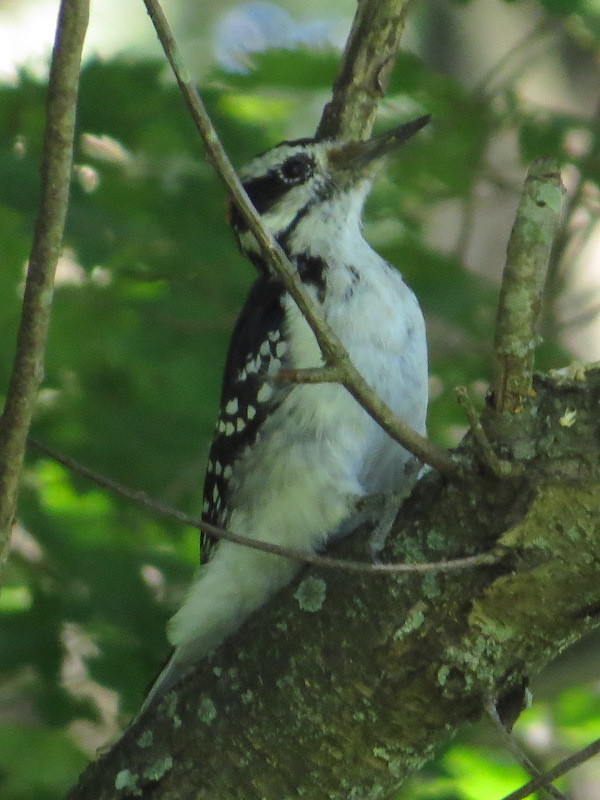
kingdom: Animalia
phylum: Chordata
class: Aves
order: Piciformes
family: Picidae
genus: Leuconotopicus
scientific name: Leuconotopicus villosus
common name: Hairy woodpecker
